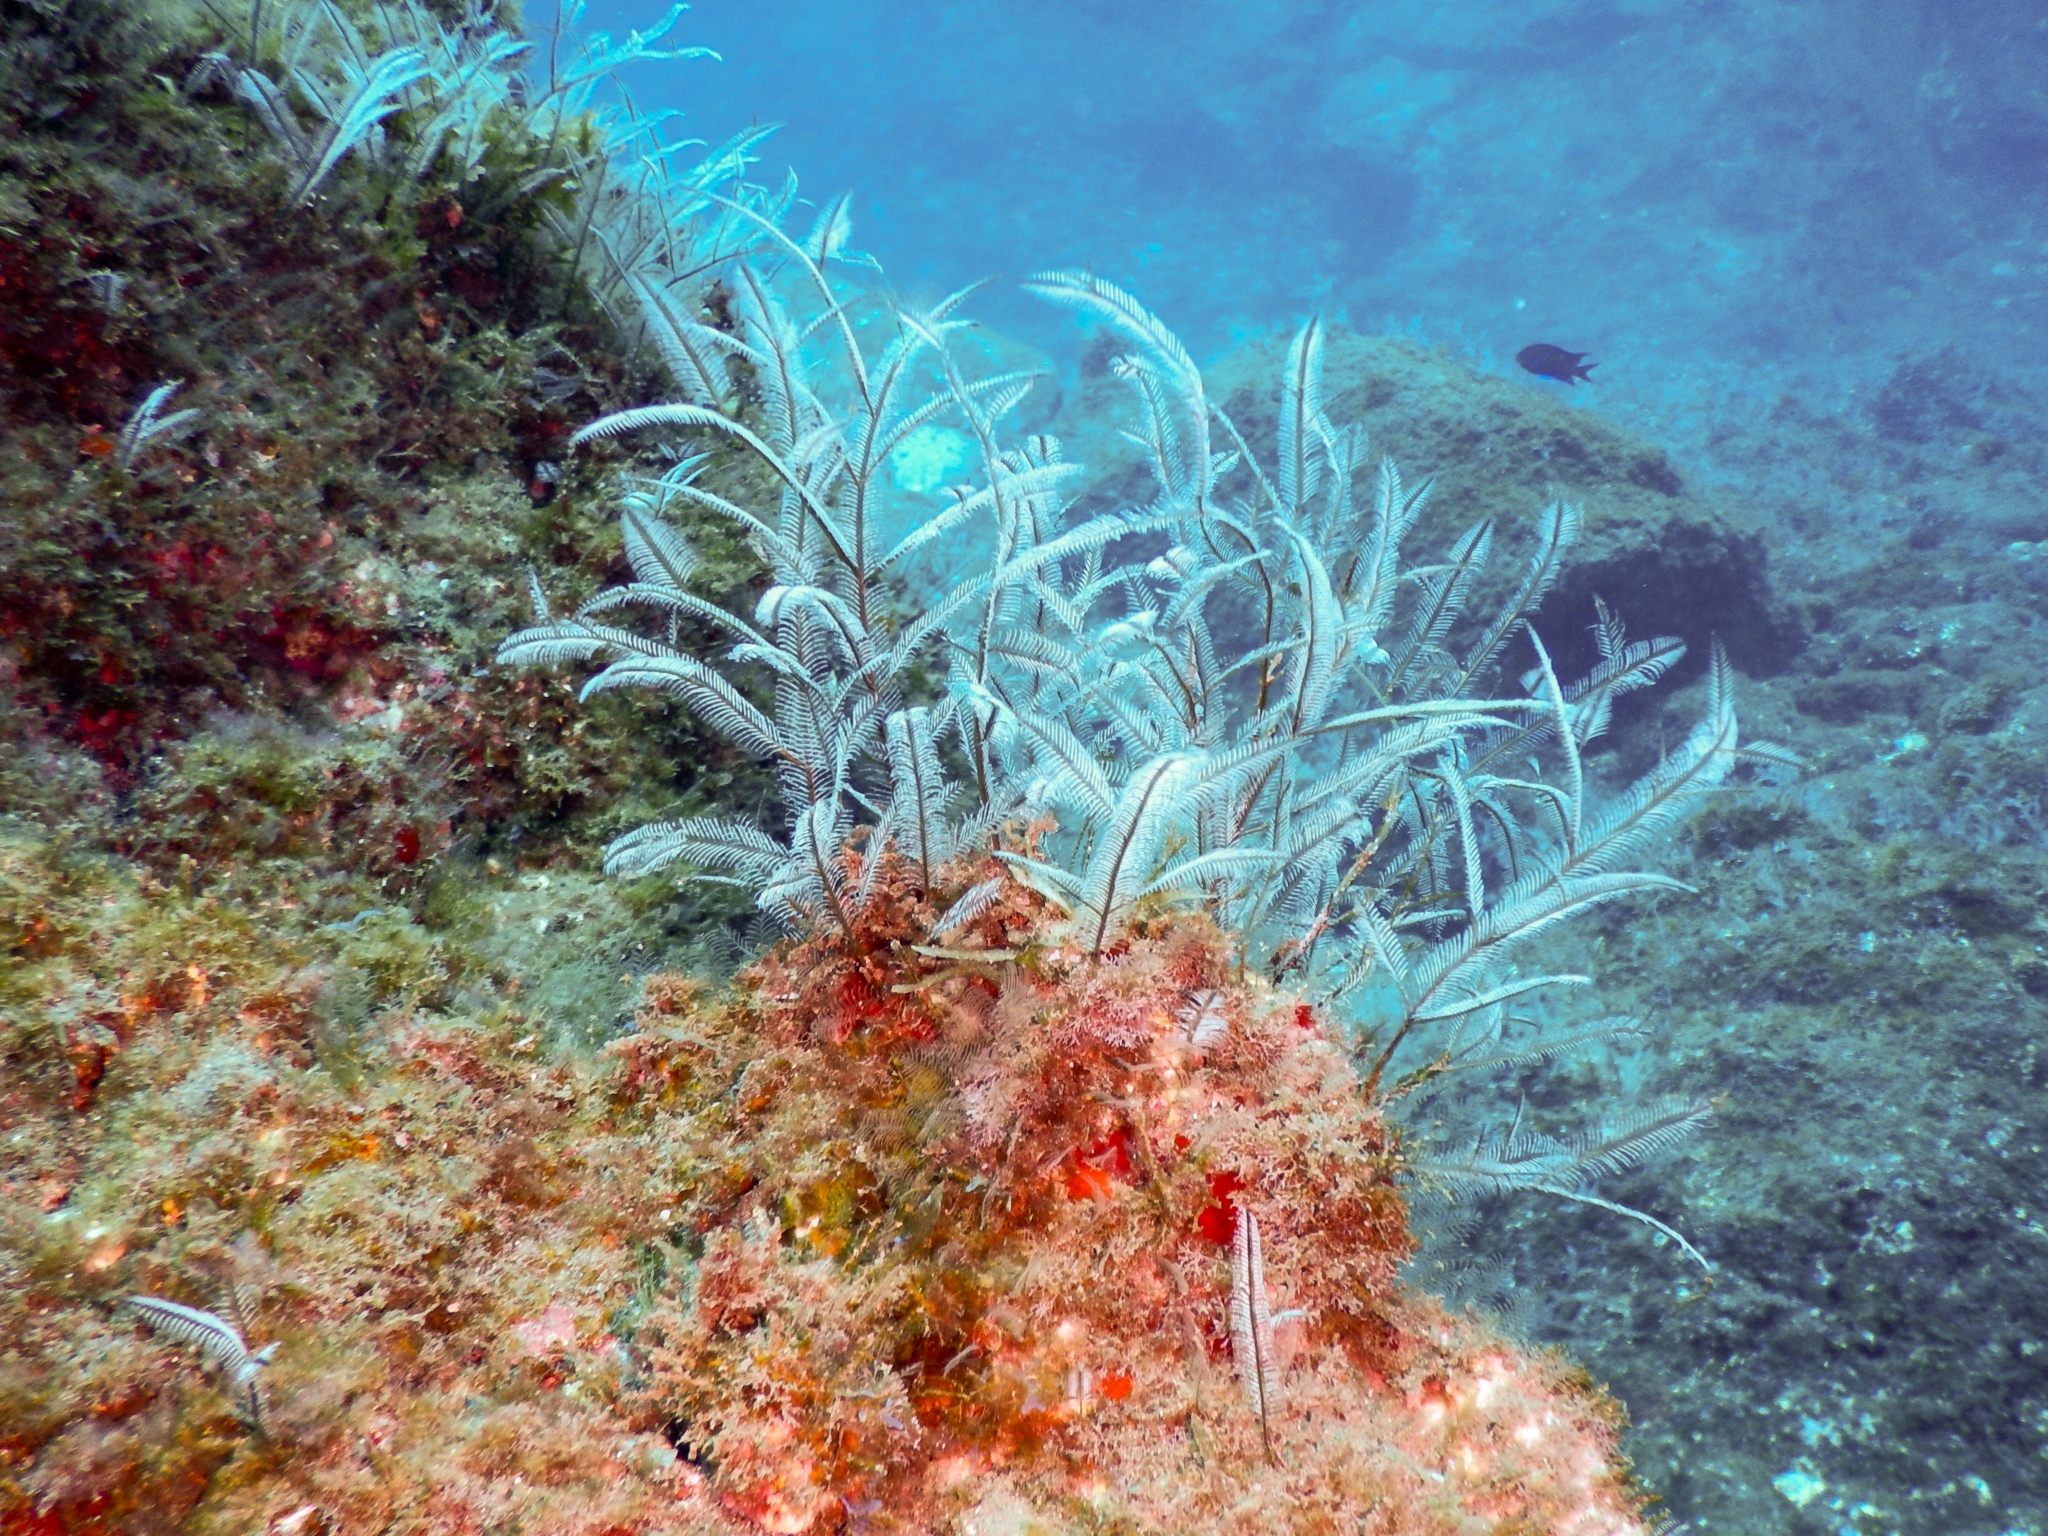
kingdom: Animalia
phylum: Cnidaria
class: Hydrozoa
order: Leptothecata
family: Aglaopheniidae
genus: Macrorhynchia
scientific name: Macrorhynchia philippina
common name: Stinging hydroid
